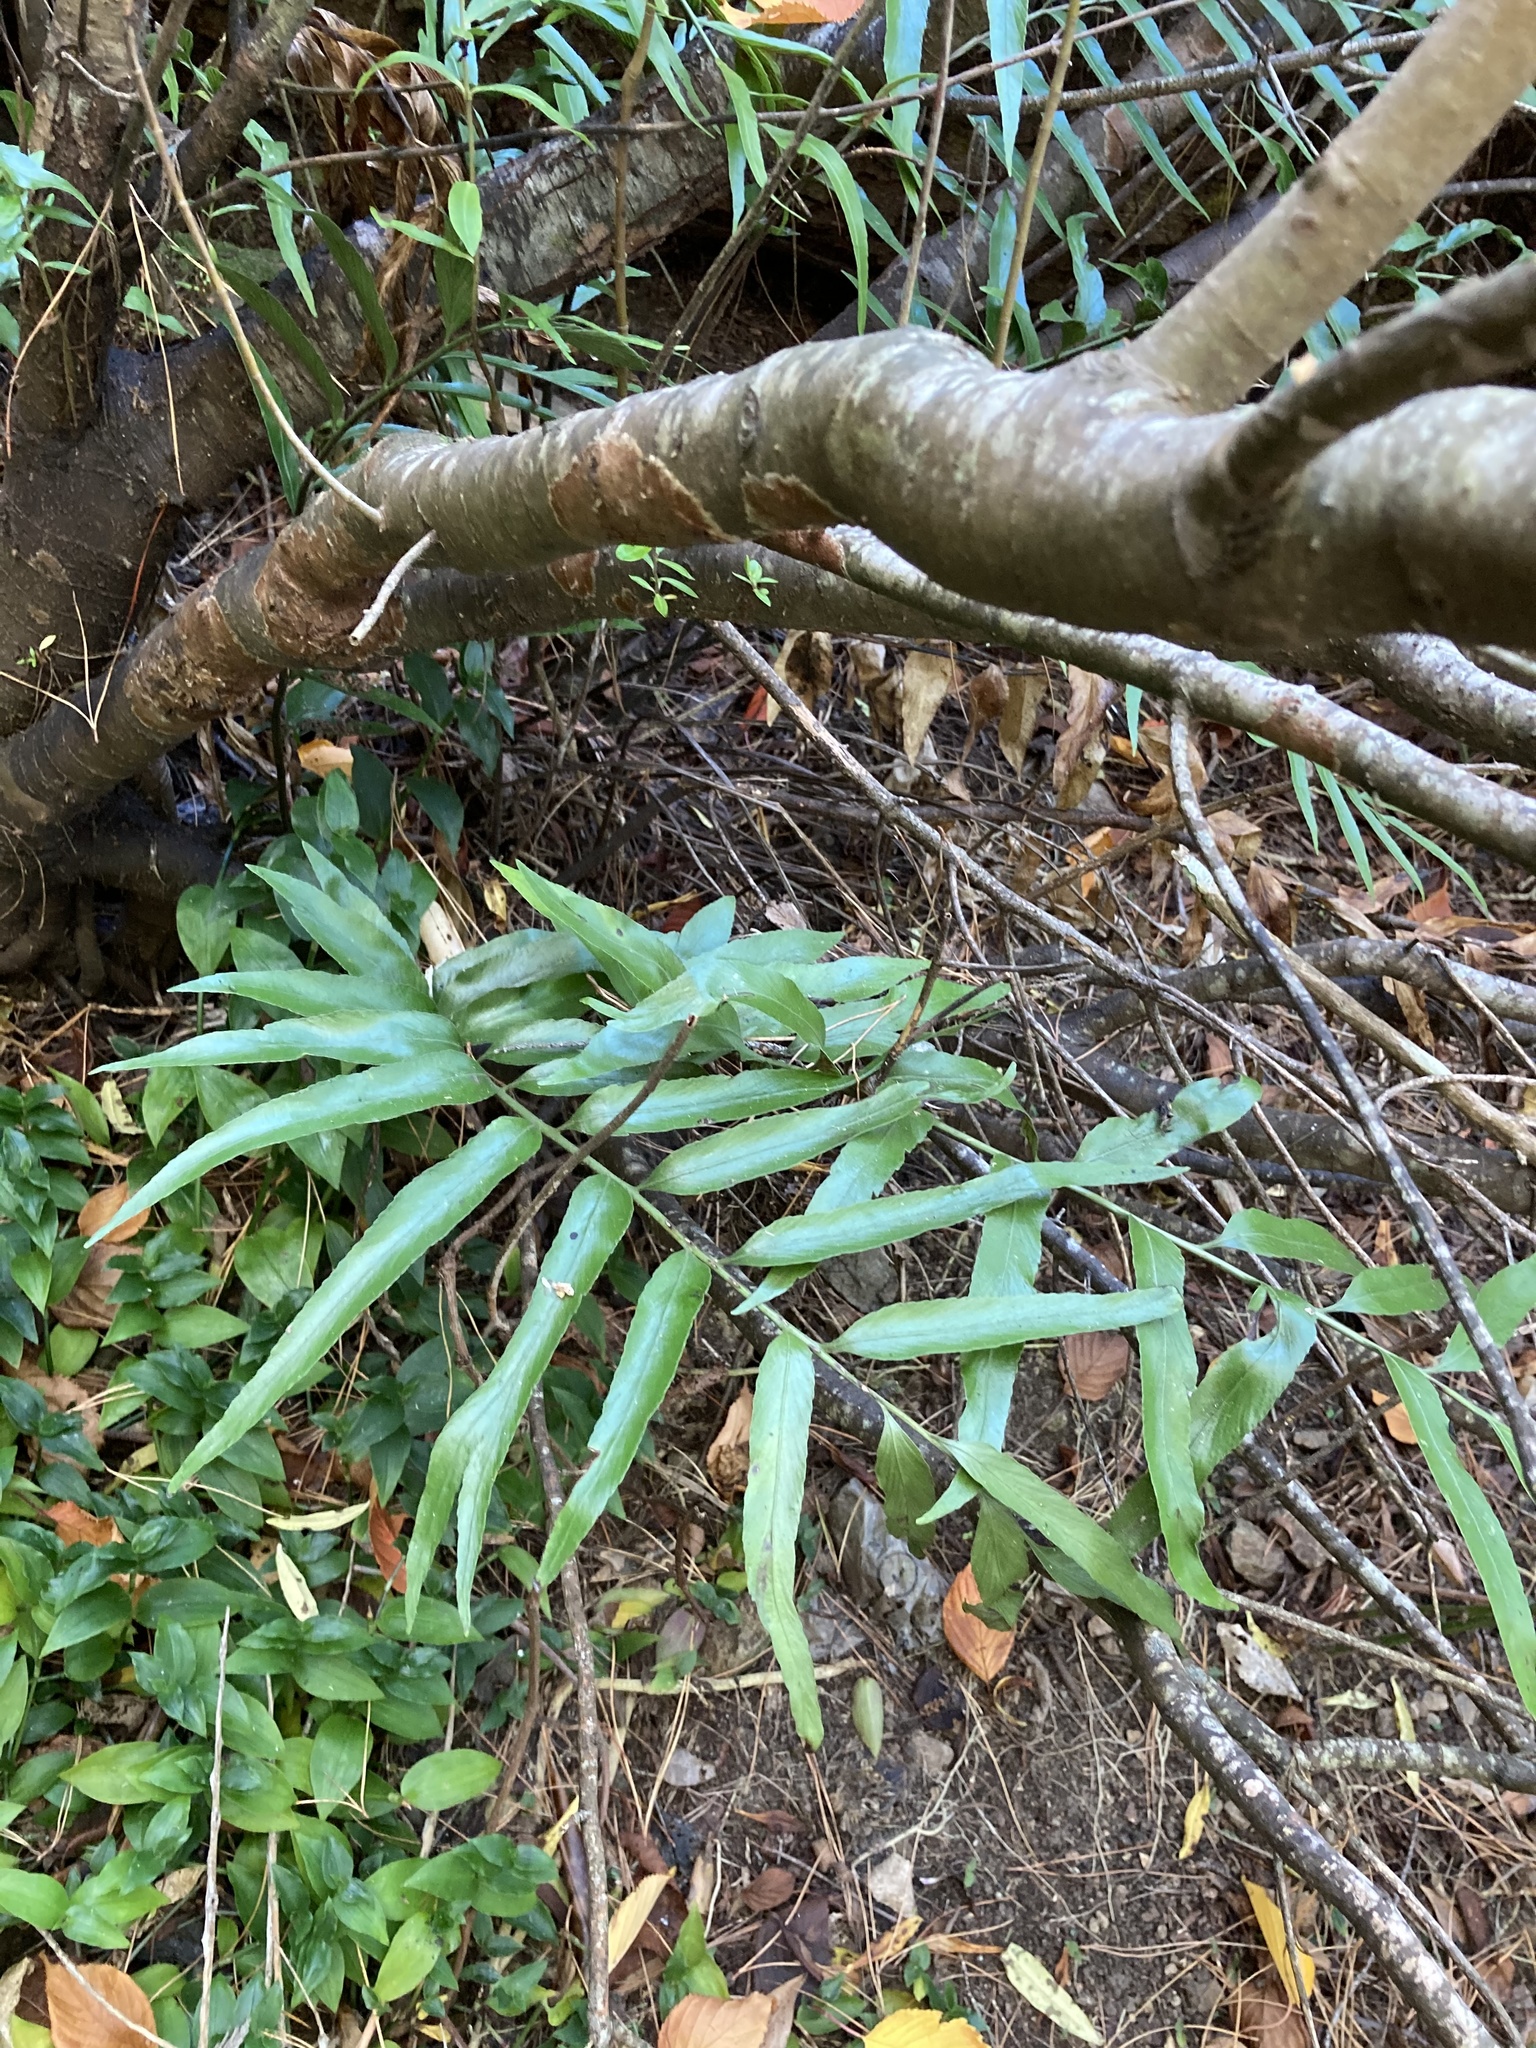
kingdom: Plantae
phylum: Tracheophyta
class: Polypodiopsida
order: Polypodiales
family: Aspleniaceae
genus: Asplenium
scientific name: Asplenium oblongifolium
